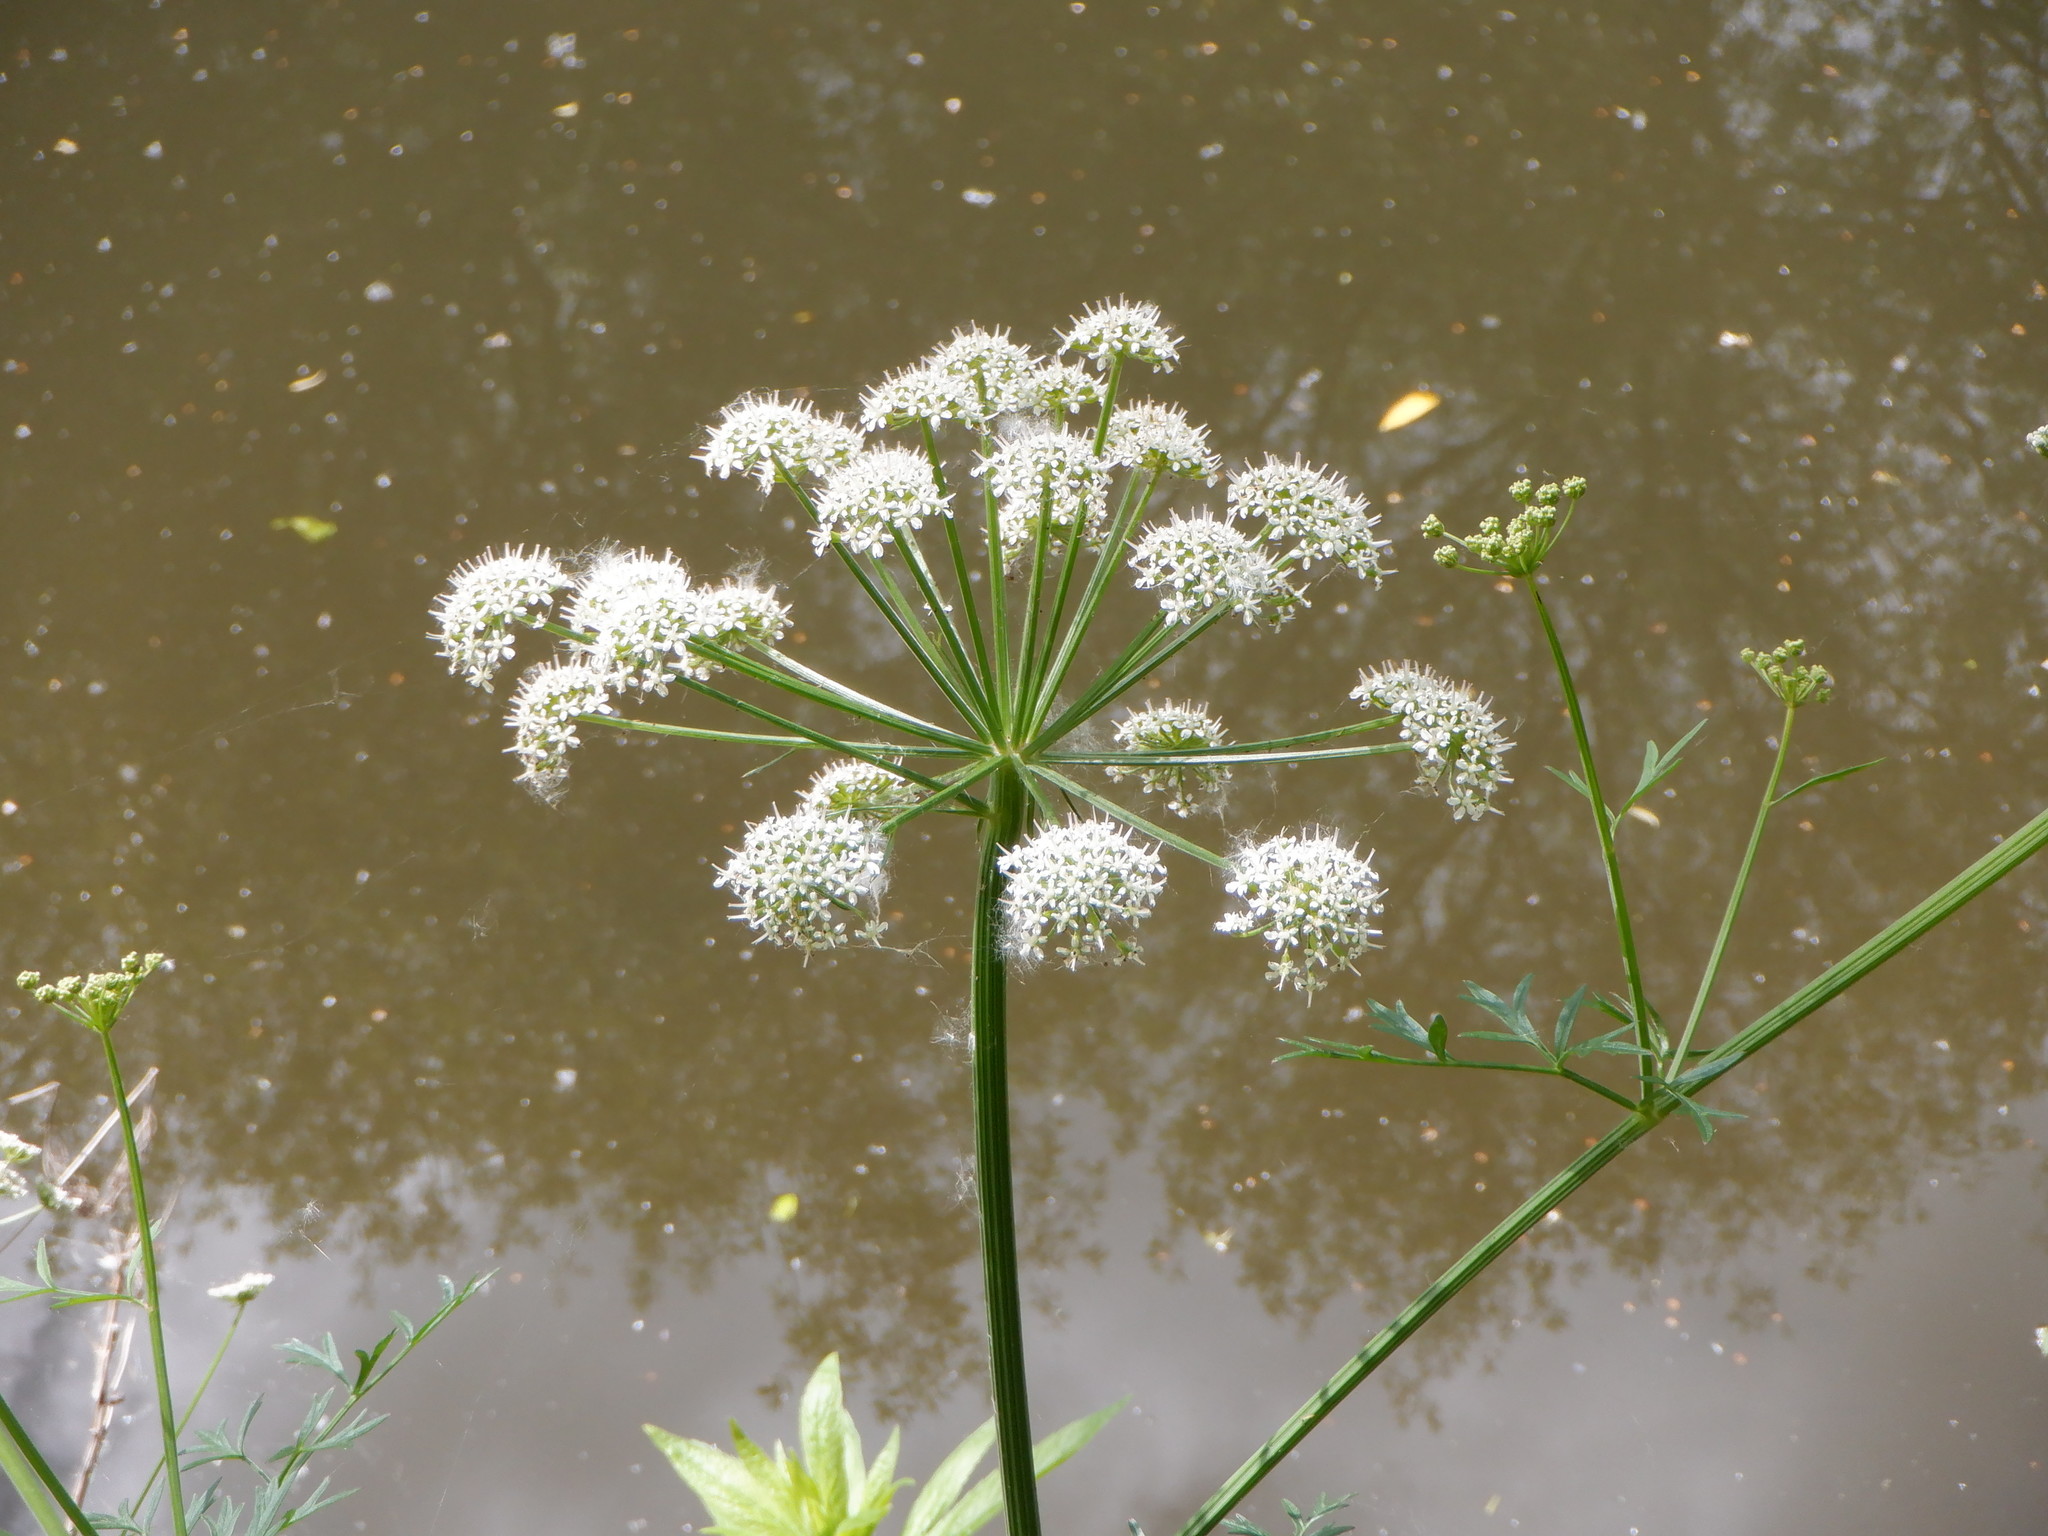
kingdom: Plantae
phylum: Tracheophyta
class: Magnoliopsida
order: Apiales
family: Apiaceae
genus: Oenanthe
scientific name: Oenanthe crocata
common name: Hemlock water-dropwort
